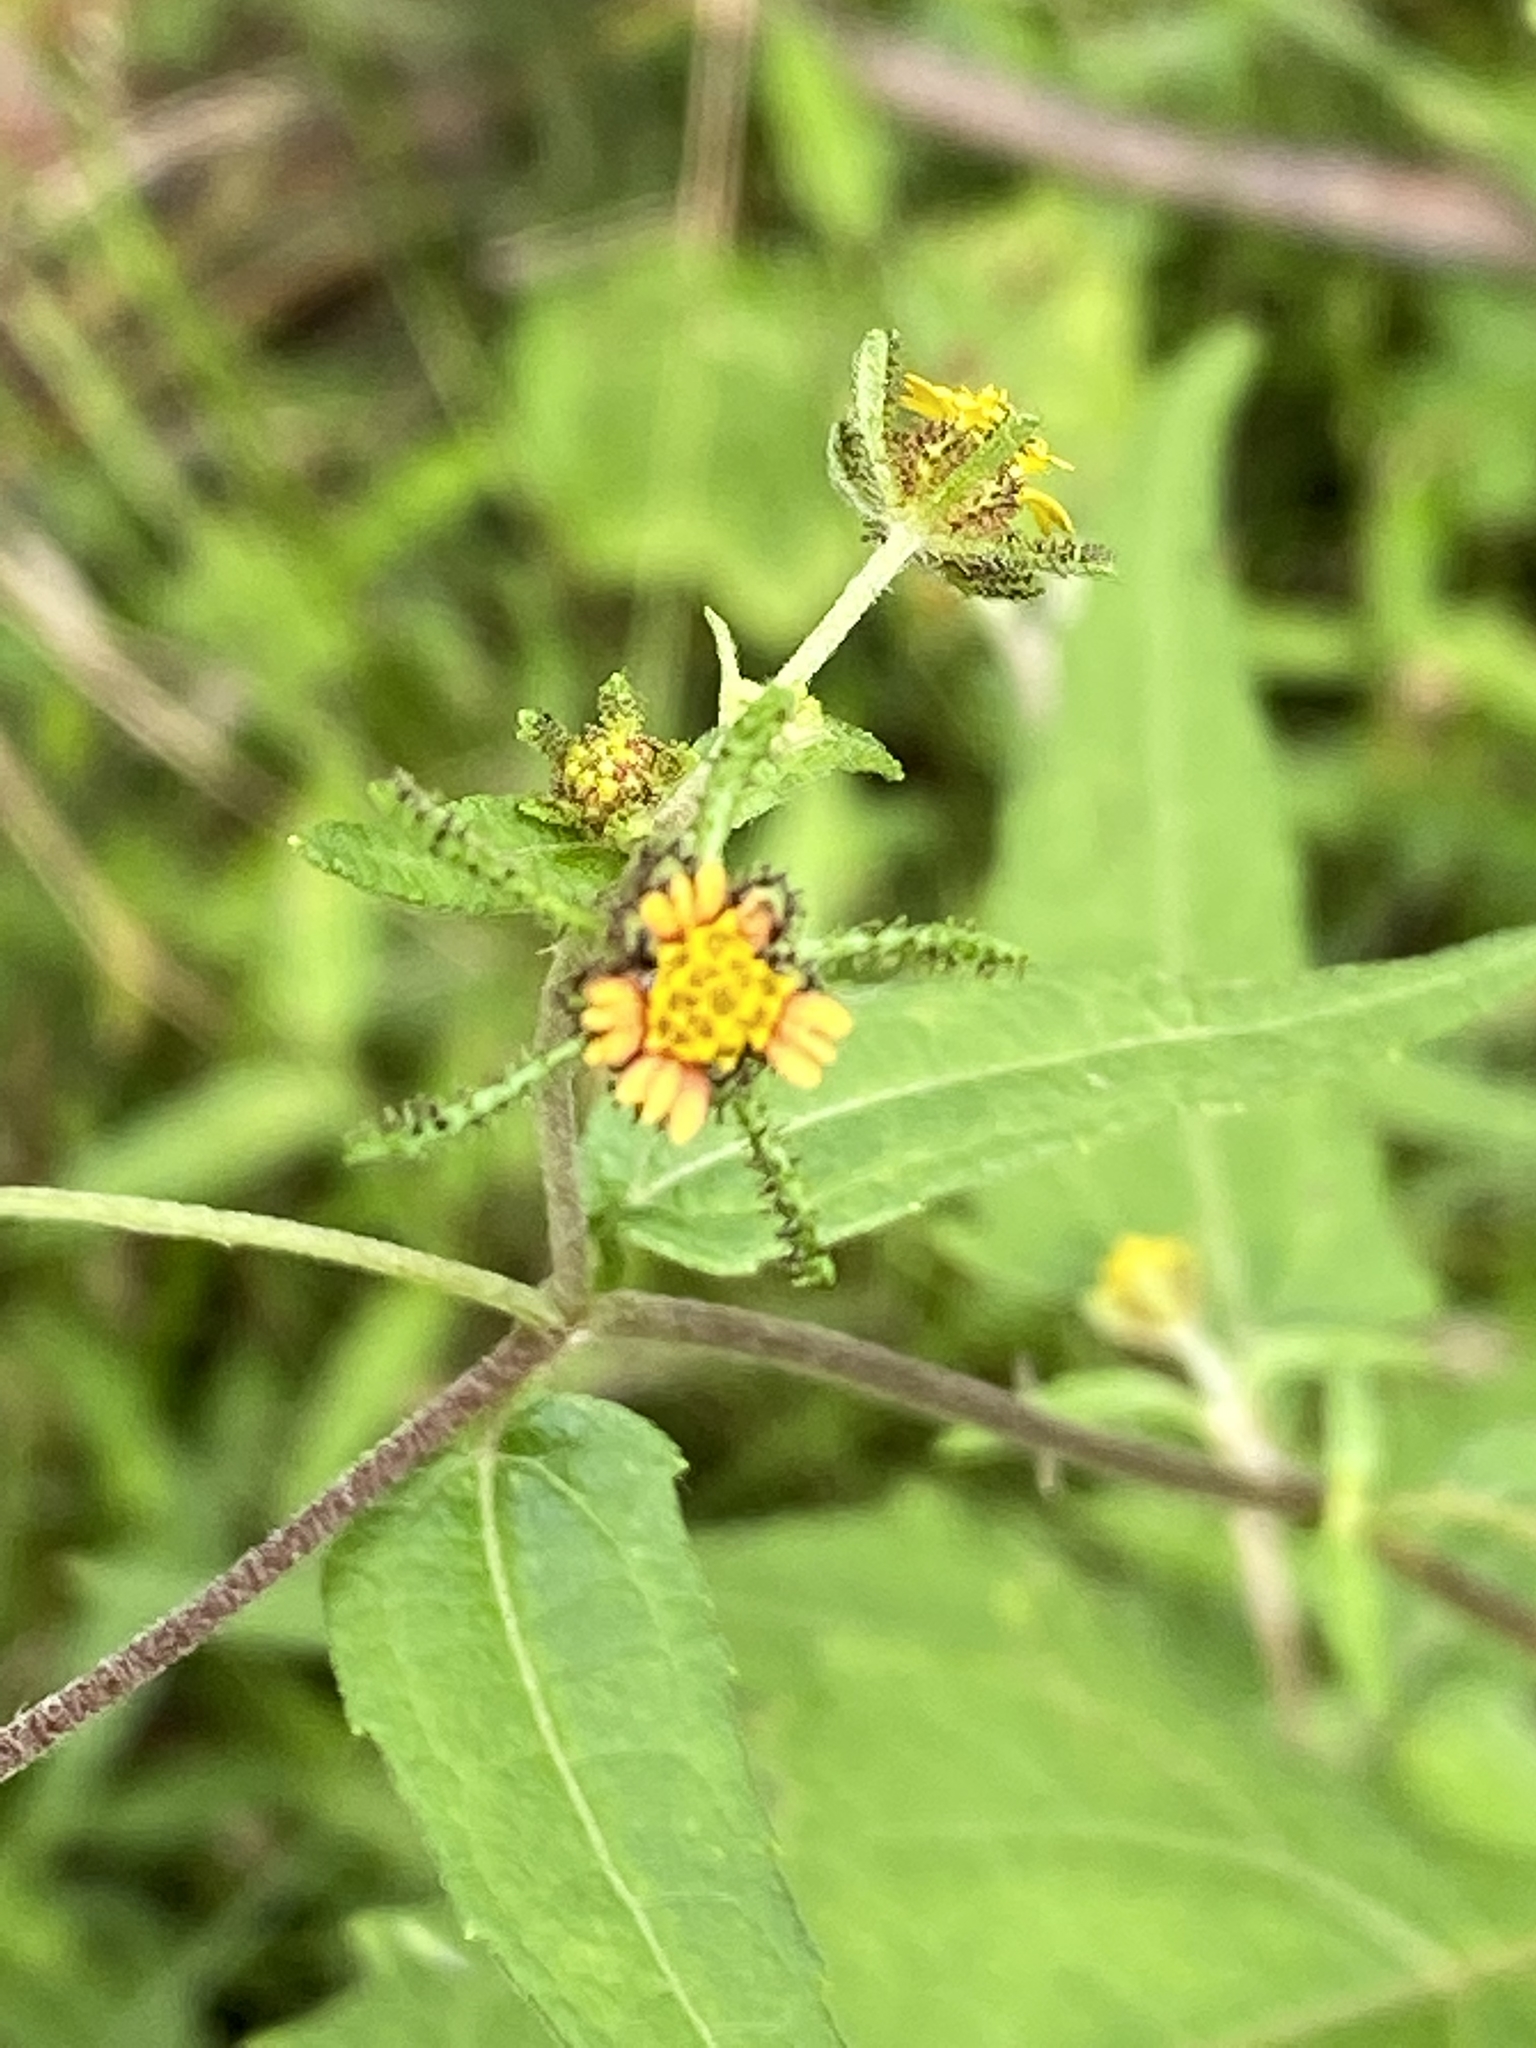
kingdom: Plantae
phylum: Tracheophyta
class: Magnoliopsida
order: Asterales
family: Asteraceae
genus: Sigesbeckia
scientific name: Sigesbeckia orientalis
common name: Eastern st paul's-wort
